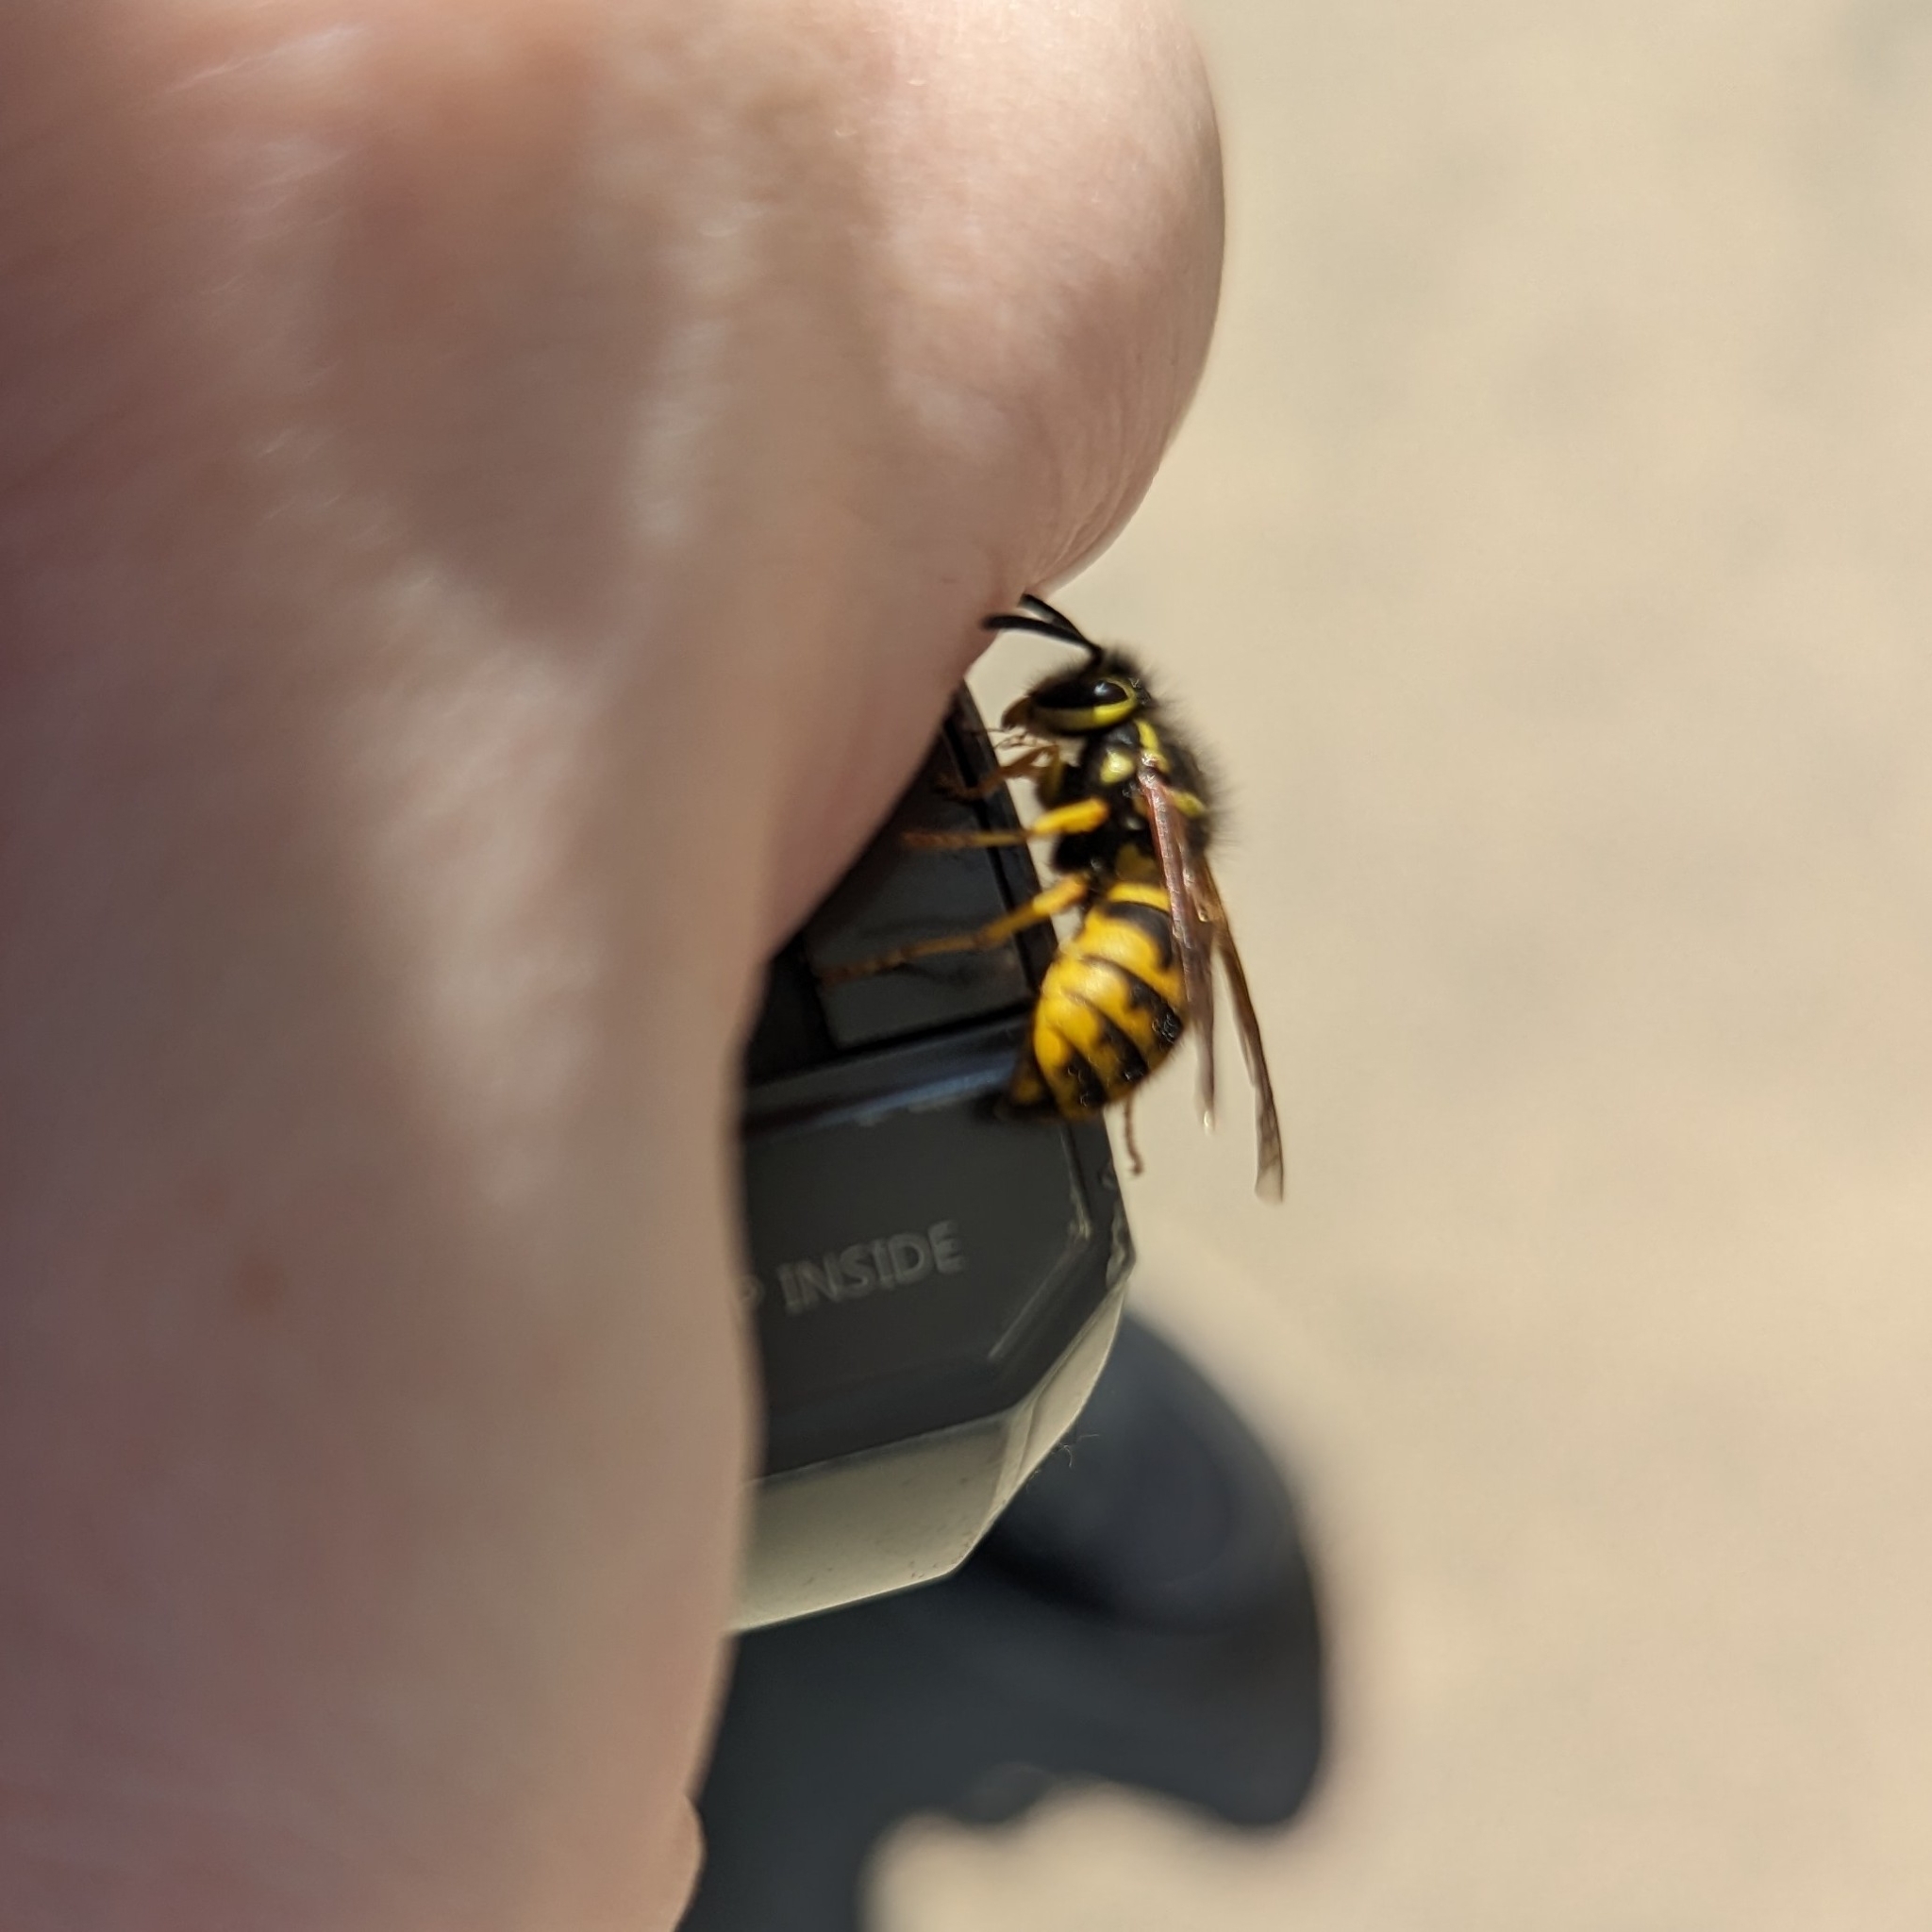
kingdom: Animalia
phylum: Arthropoda
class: Insecta
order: Hymenoptera
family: Vespidae
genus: Vespula
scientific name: Vespula pensylvanica
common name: Western yellowjacket
